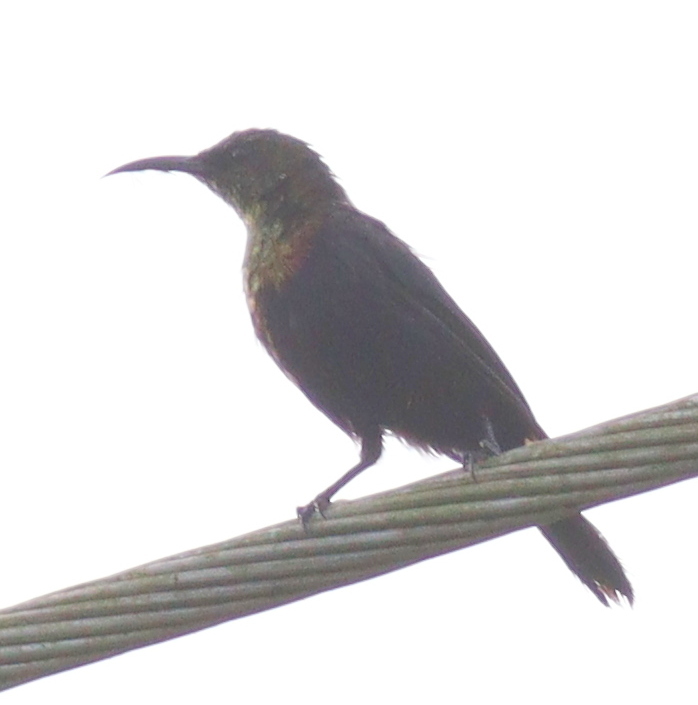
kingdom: Animalia
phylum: Chordata
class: Aves
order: Passeriformes
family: Nectariniidae
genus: Cinnyris
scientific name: Cinnyris cupreus
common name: Copper sunbird
